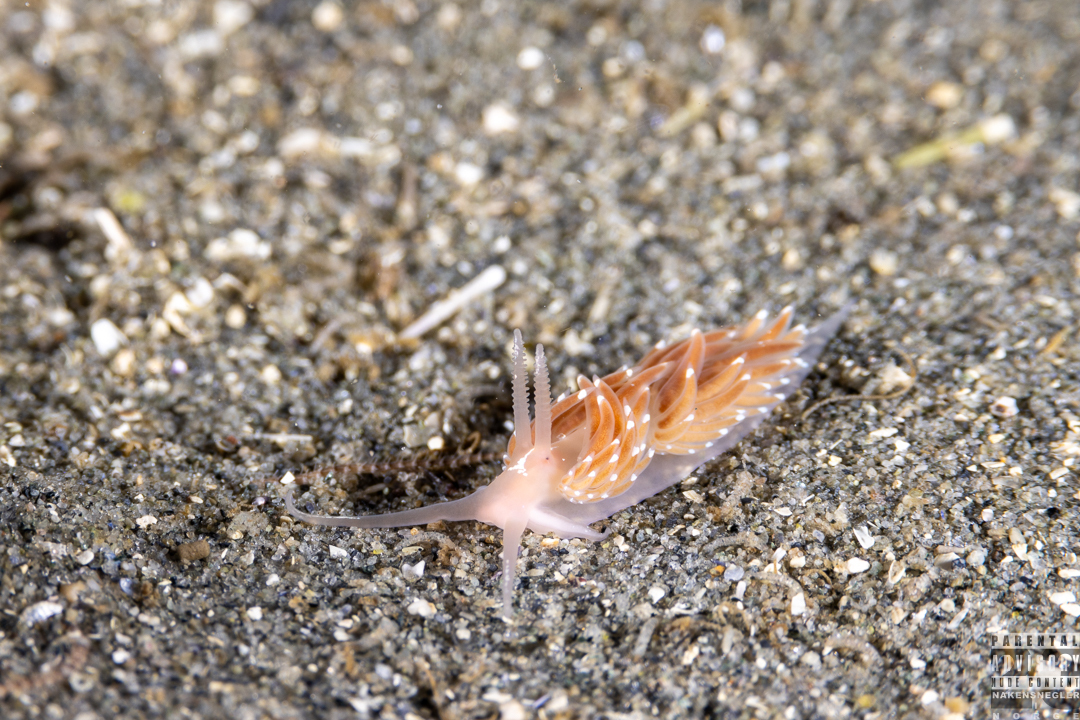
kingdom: Animalia
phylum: Mollusca
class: Gastropoda
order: Nudibranchia
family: Facelinidae
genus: Facelina
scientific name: Facelina bostoniensis
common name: Boston facelina
